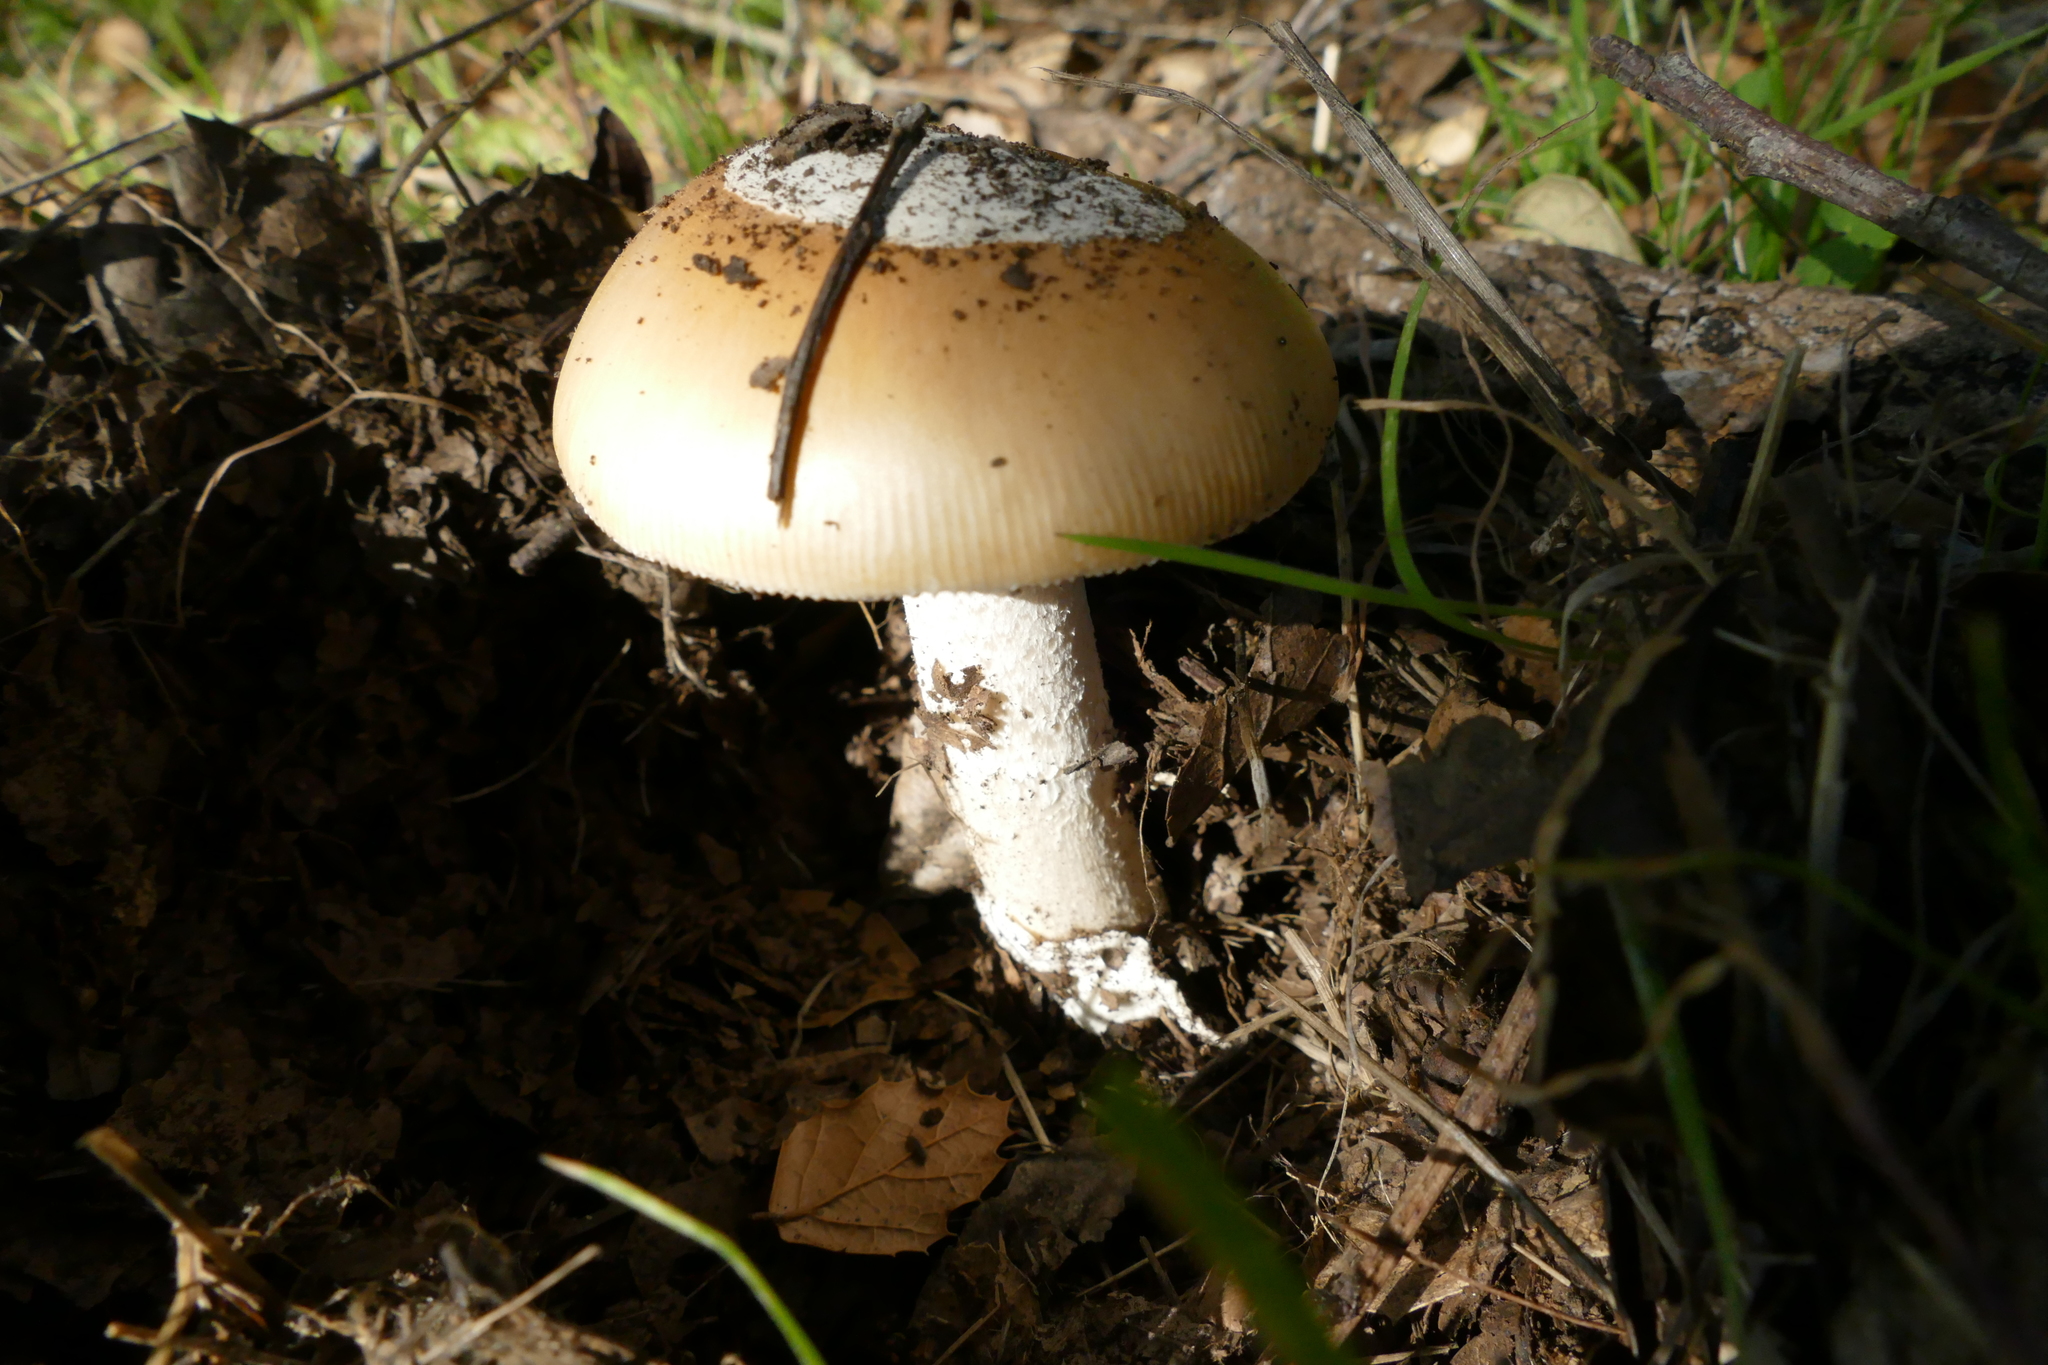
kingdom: Fungi
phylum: Basidiomycota
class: Agaricomycetes
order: Agaricales
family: Amanitaceae
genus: Amanita
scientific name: Amanita velosa
